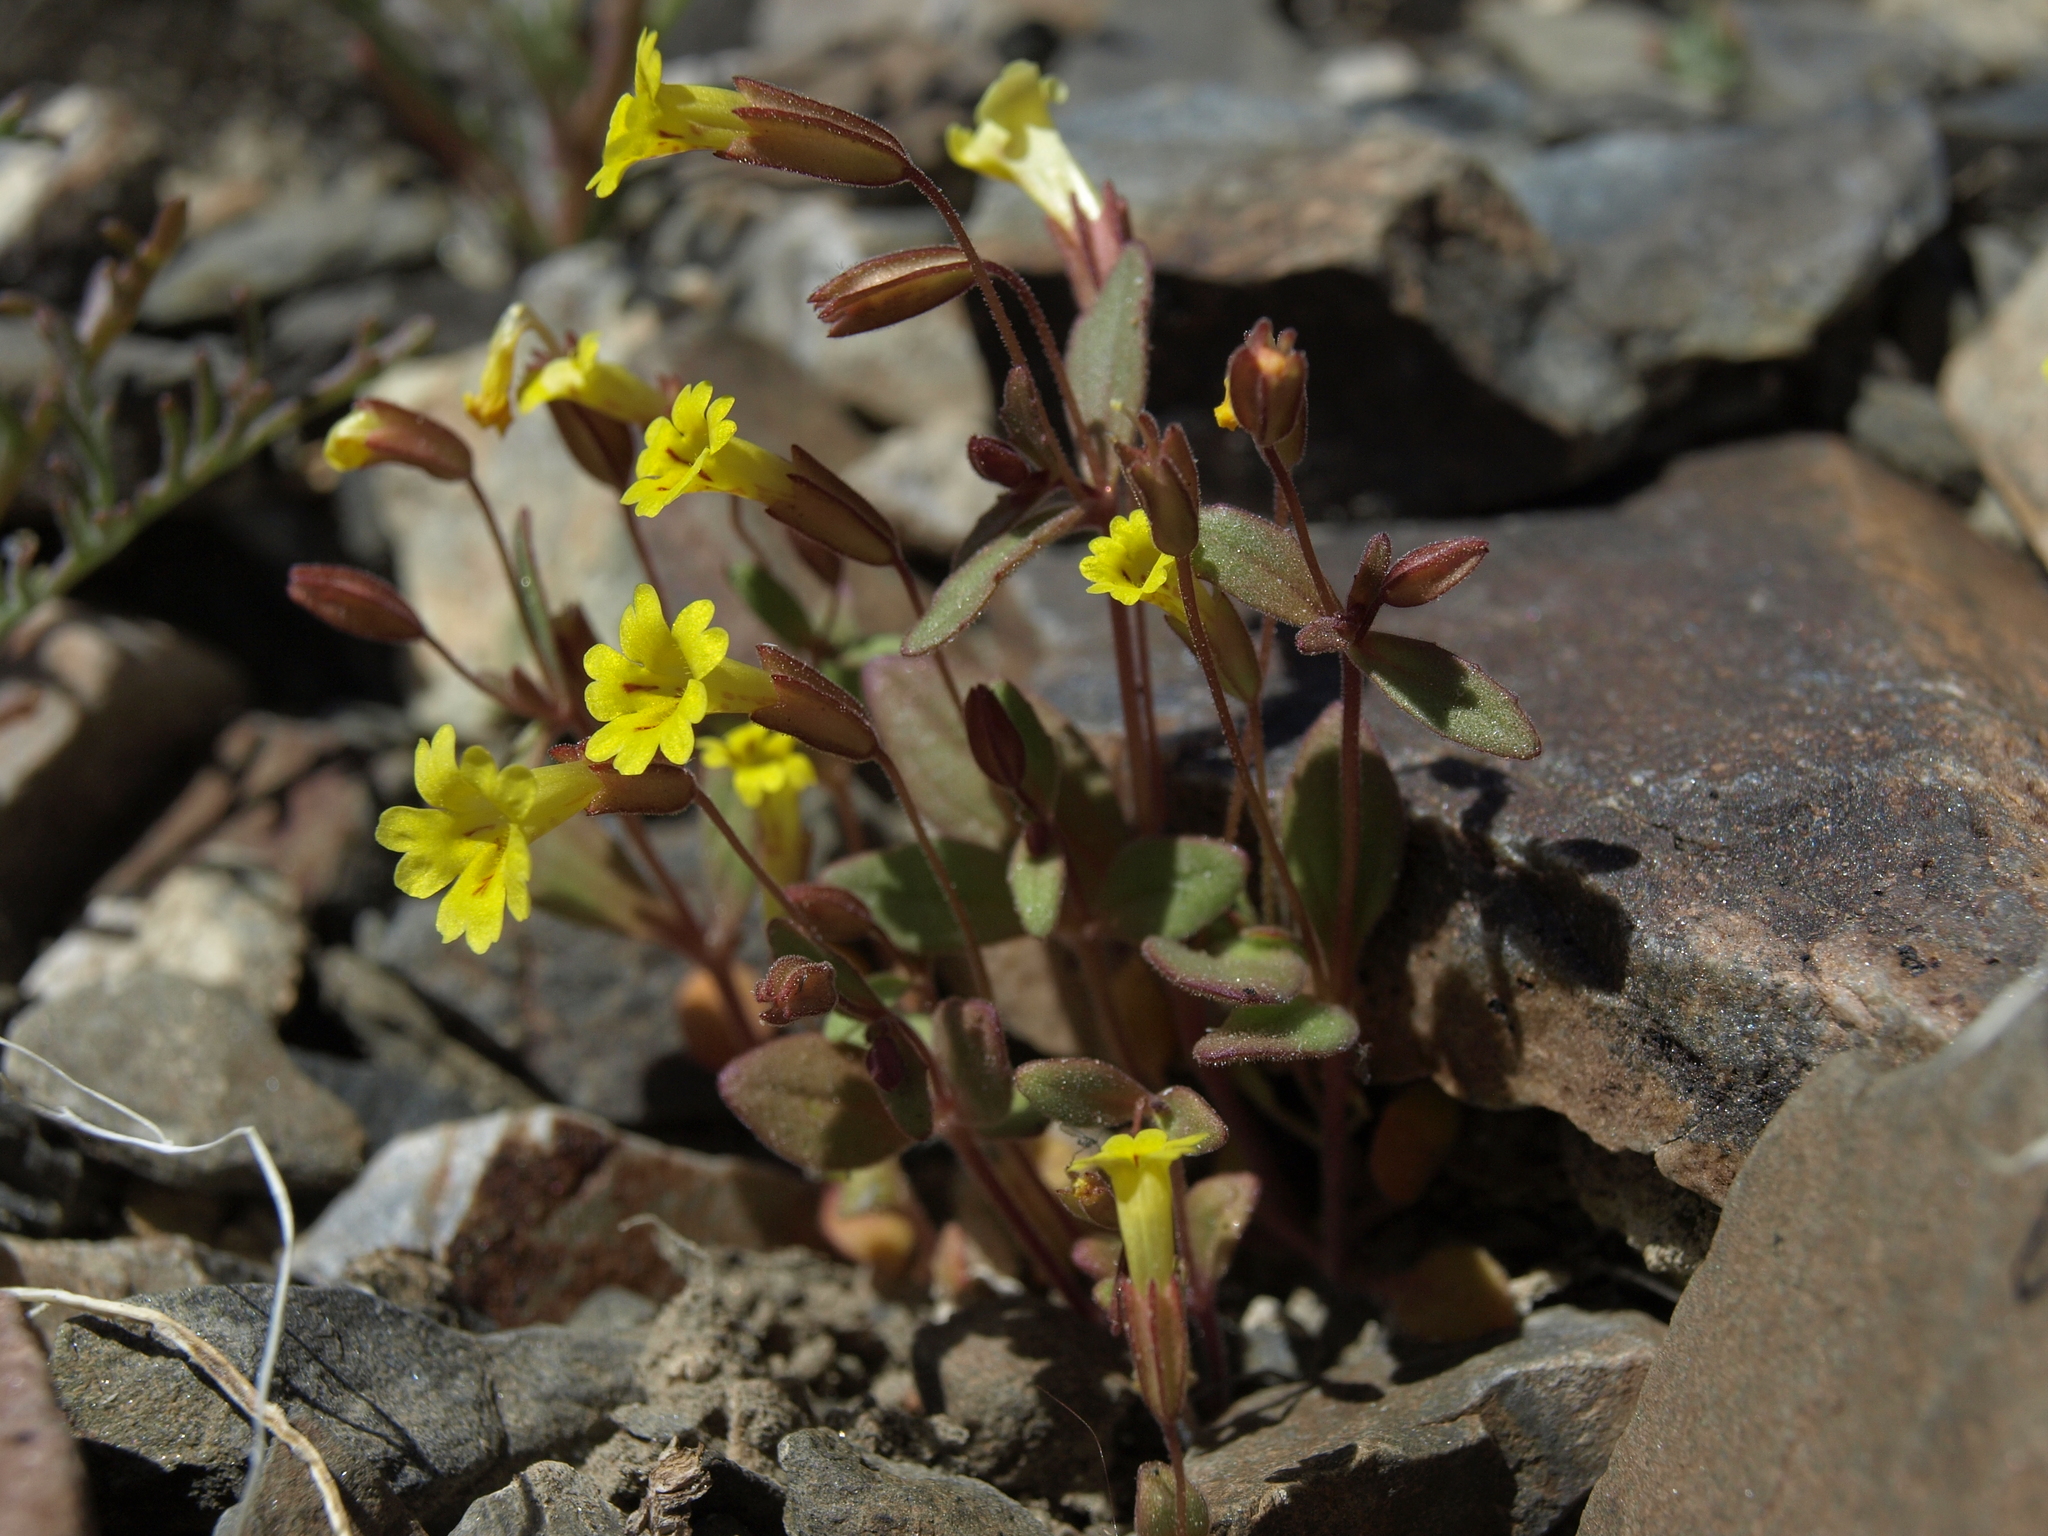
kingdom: Plantae
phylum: Tracheophyta
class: Magnoliopsida
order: Lamiales
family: Phrymaceae
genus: Erythranthe
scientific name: Erythranthe calcicola
